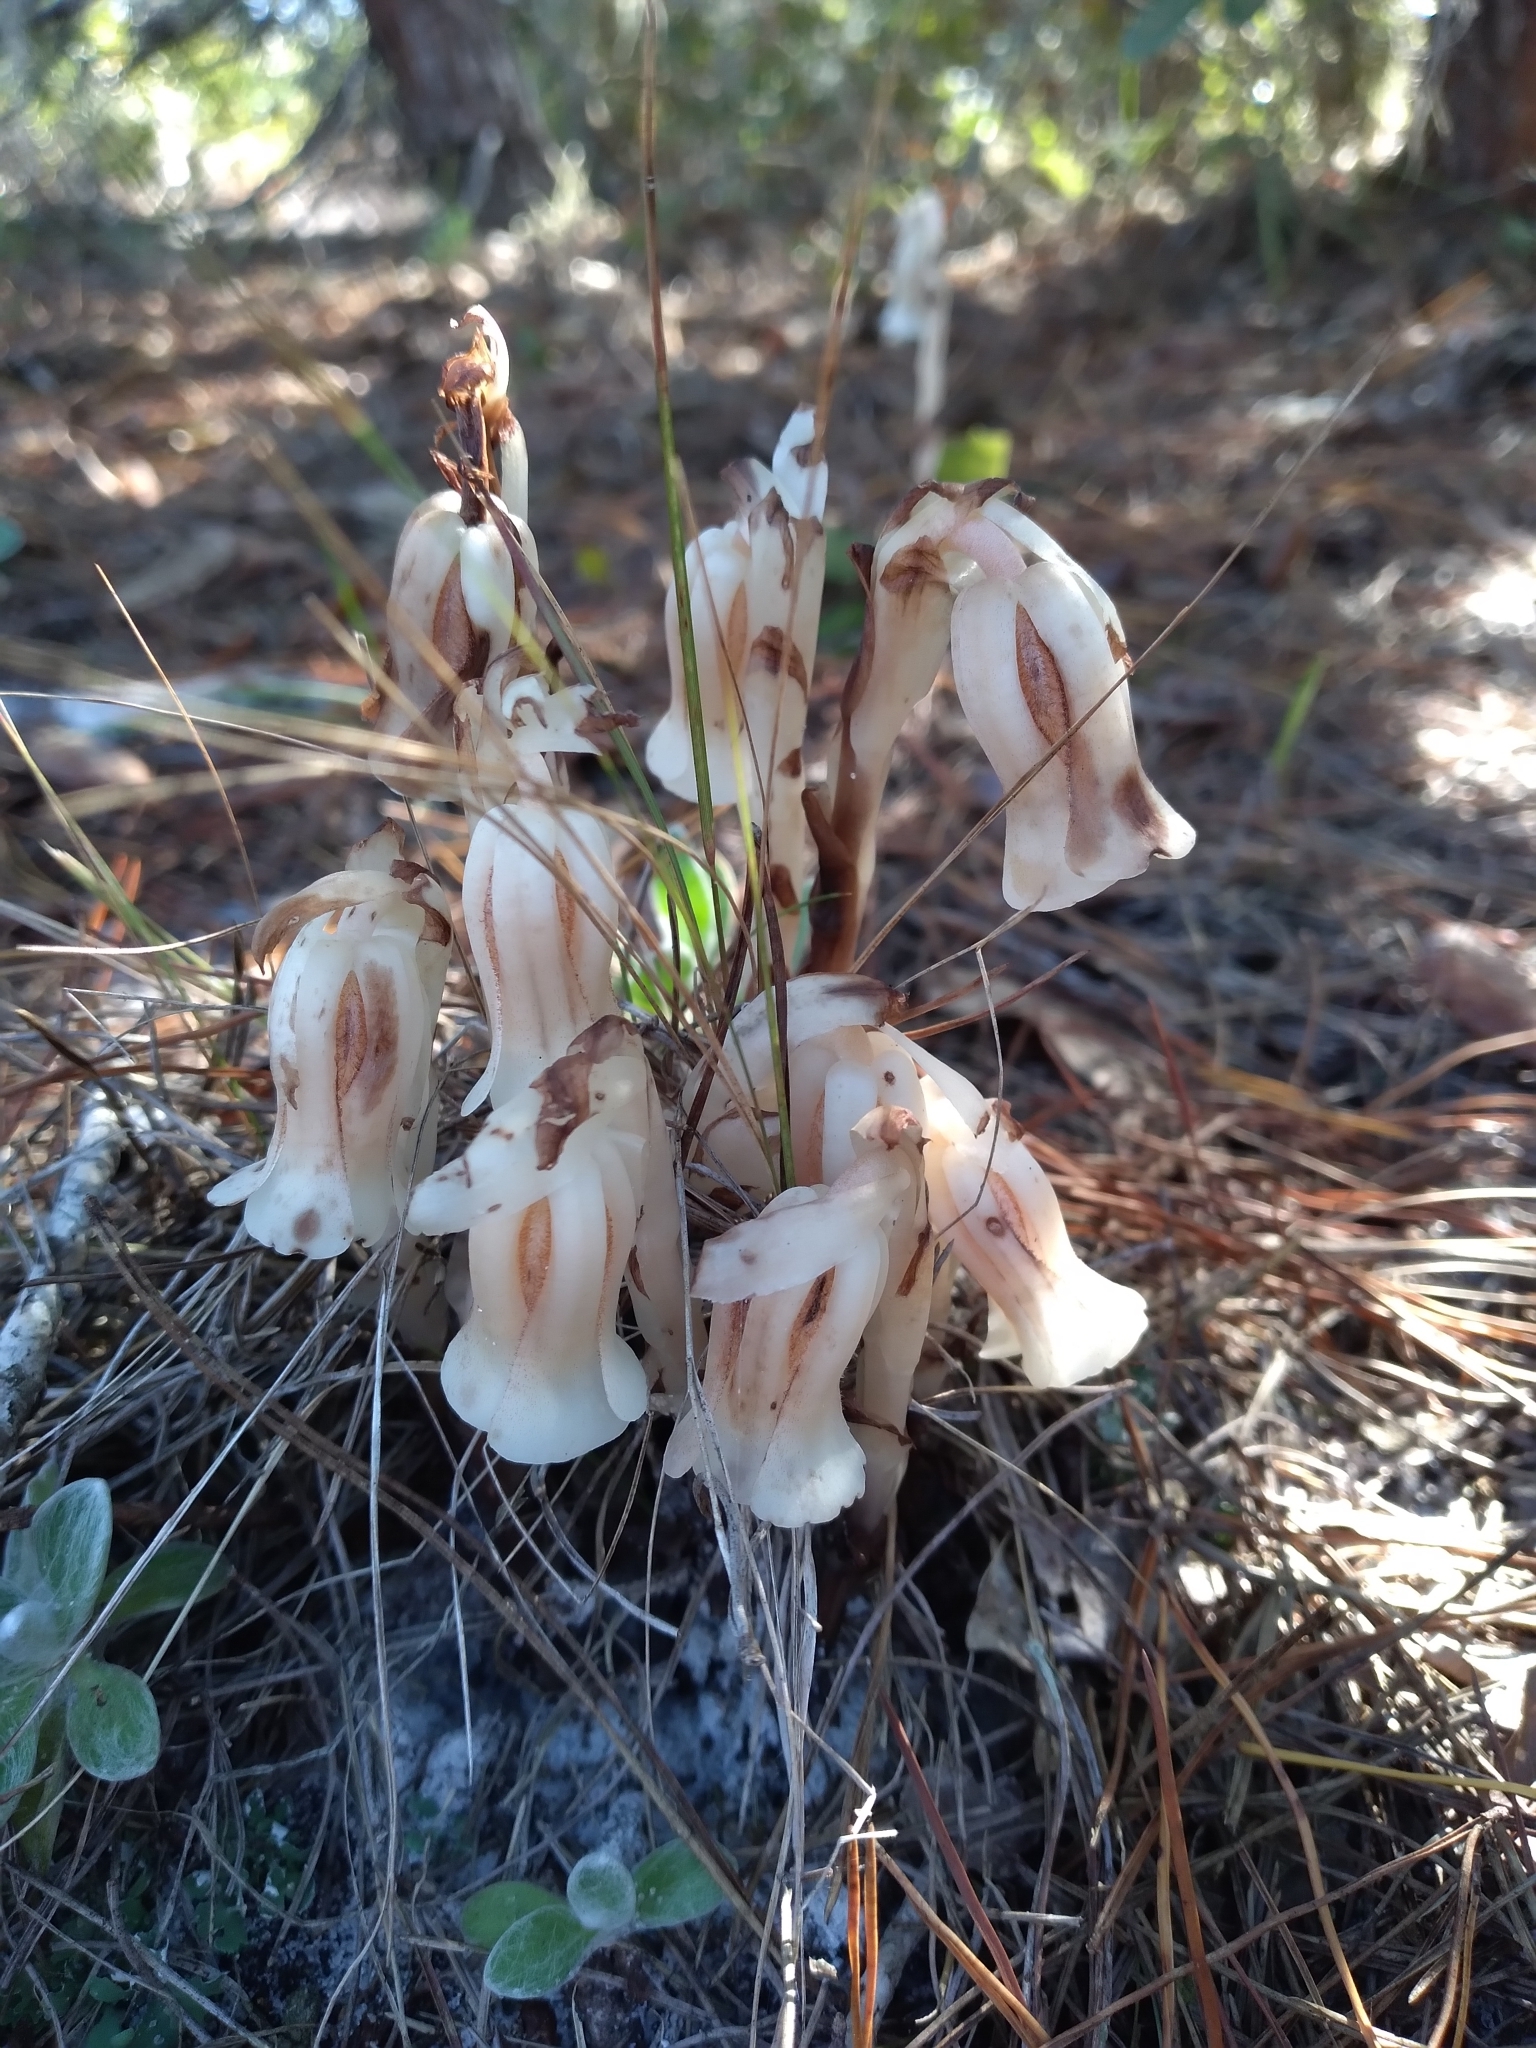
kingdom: Plantae
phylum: Tracheophyta
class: Magnoliopsida
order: Ericales
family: Ericaceae
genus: Monotropa
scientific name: Monotropa uniflora
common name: Convulsion root
